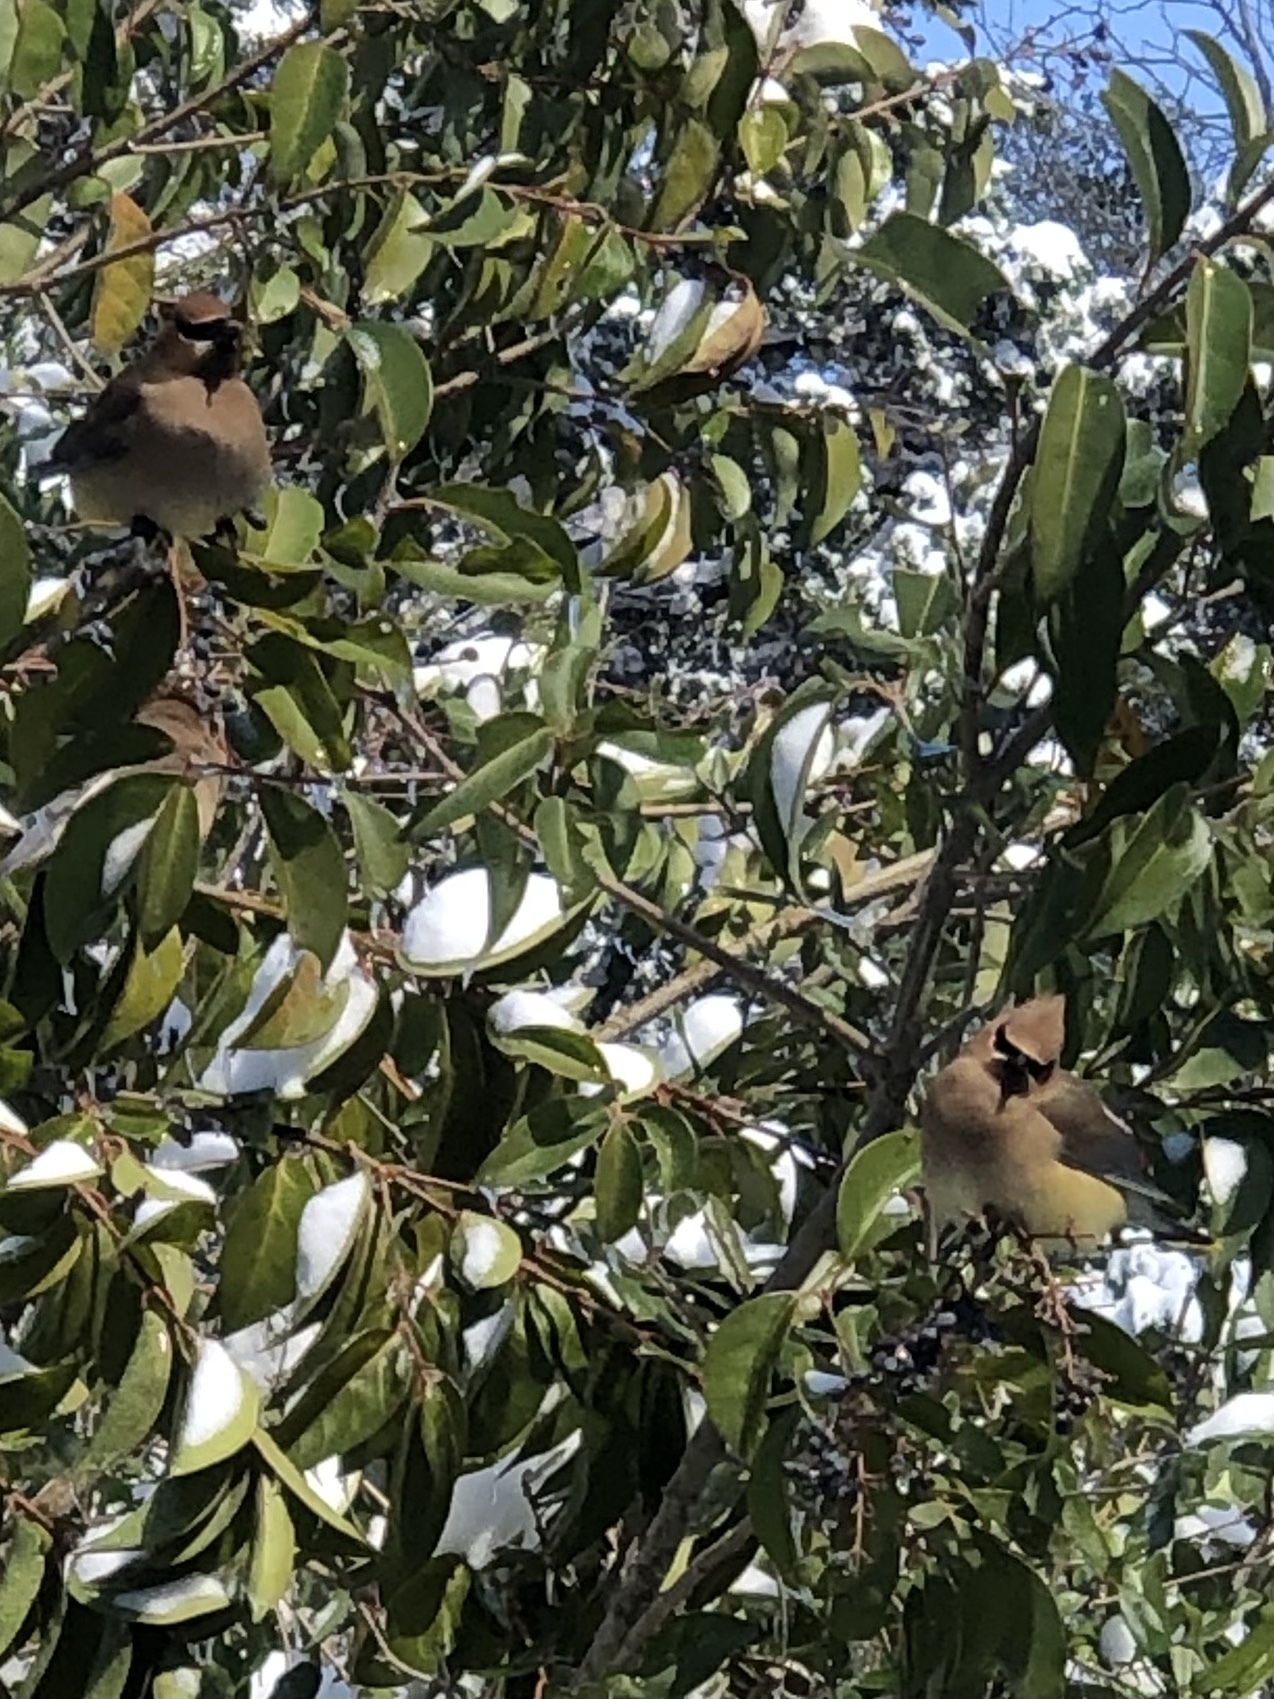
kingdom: Animalia
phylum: Chordata
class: Aves
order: Passeriformes
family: Bombycillidae
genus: Bombycilla
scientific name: Bombycilla cedrorum
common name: Cedar waxwing
